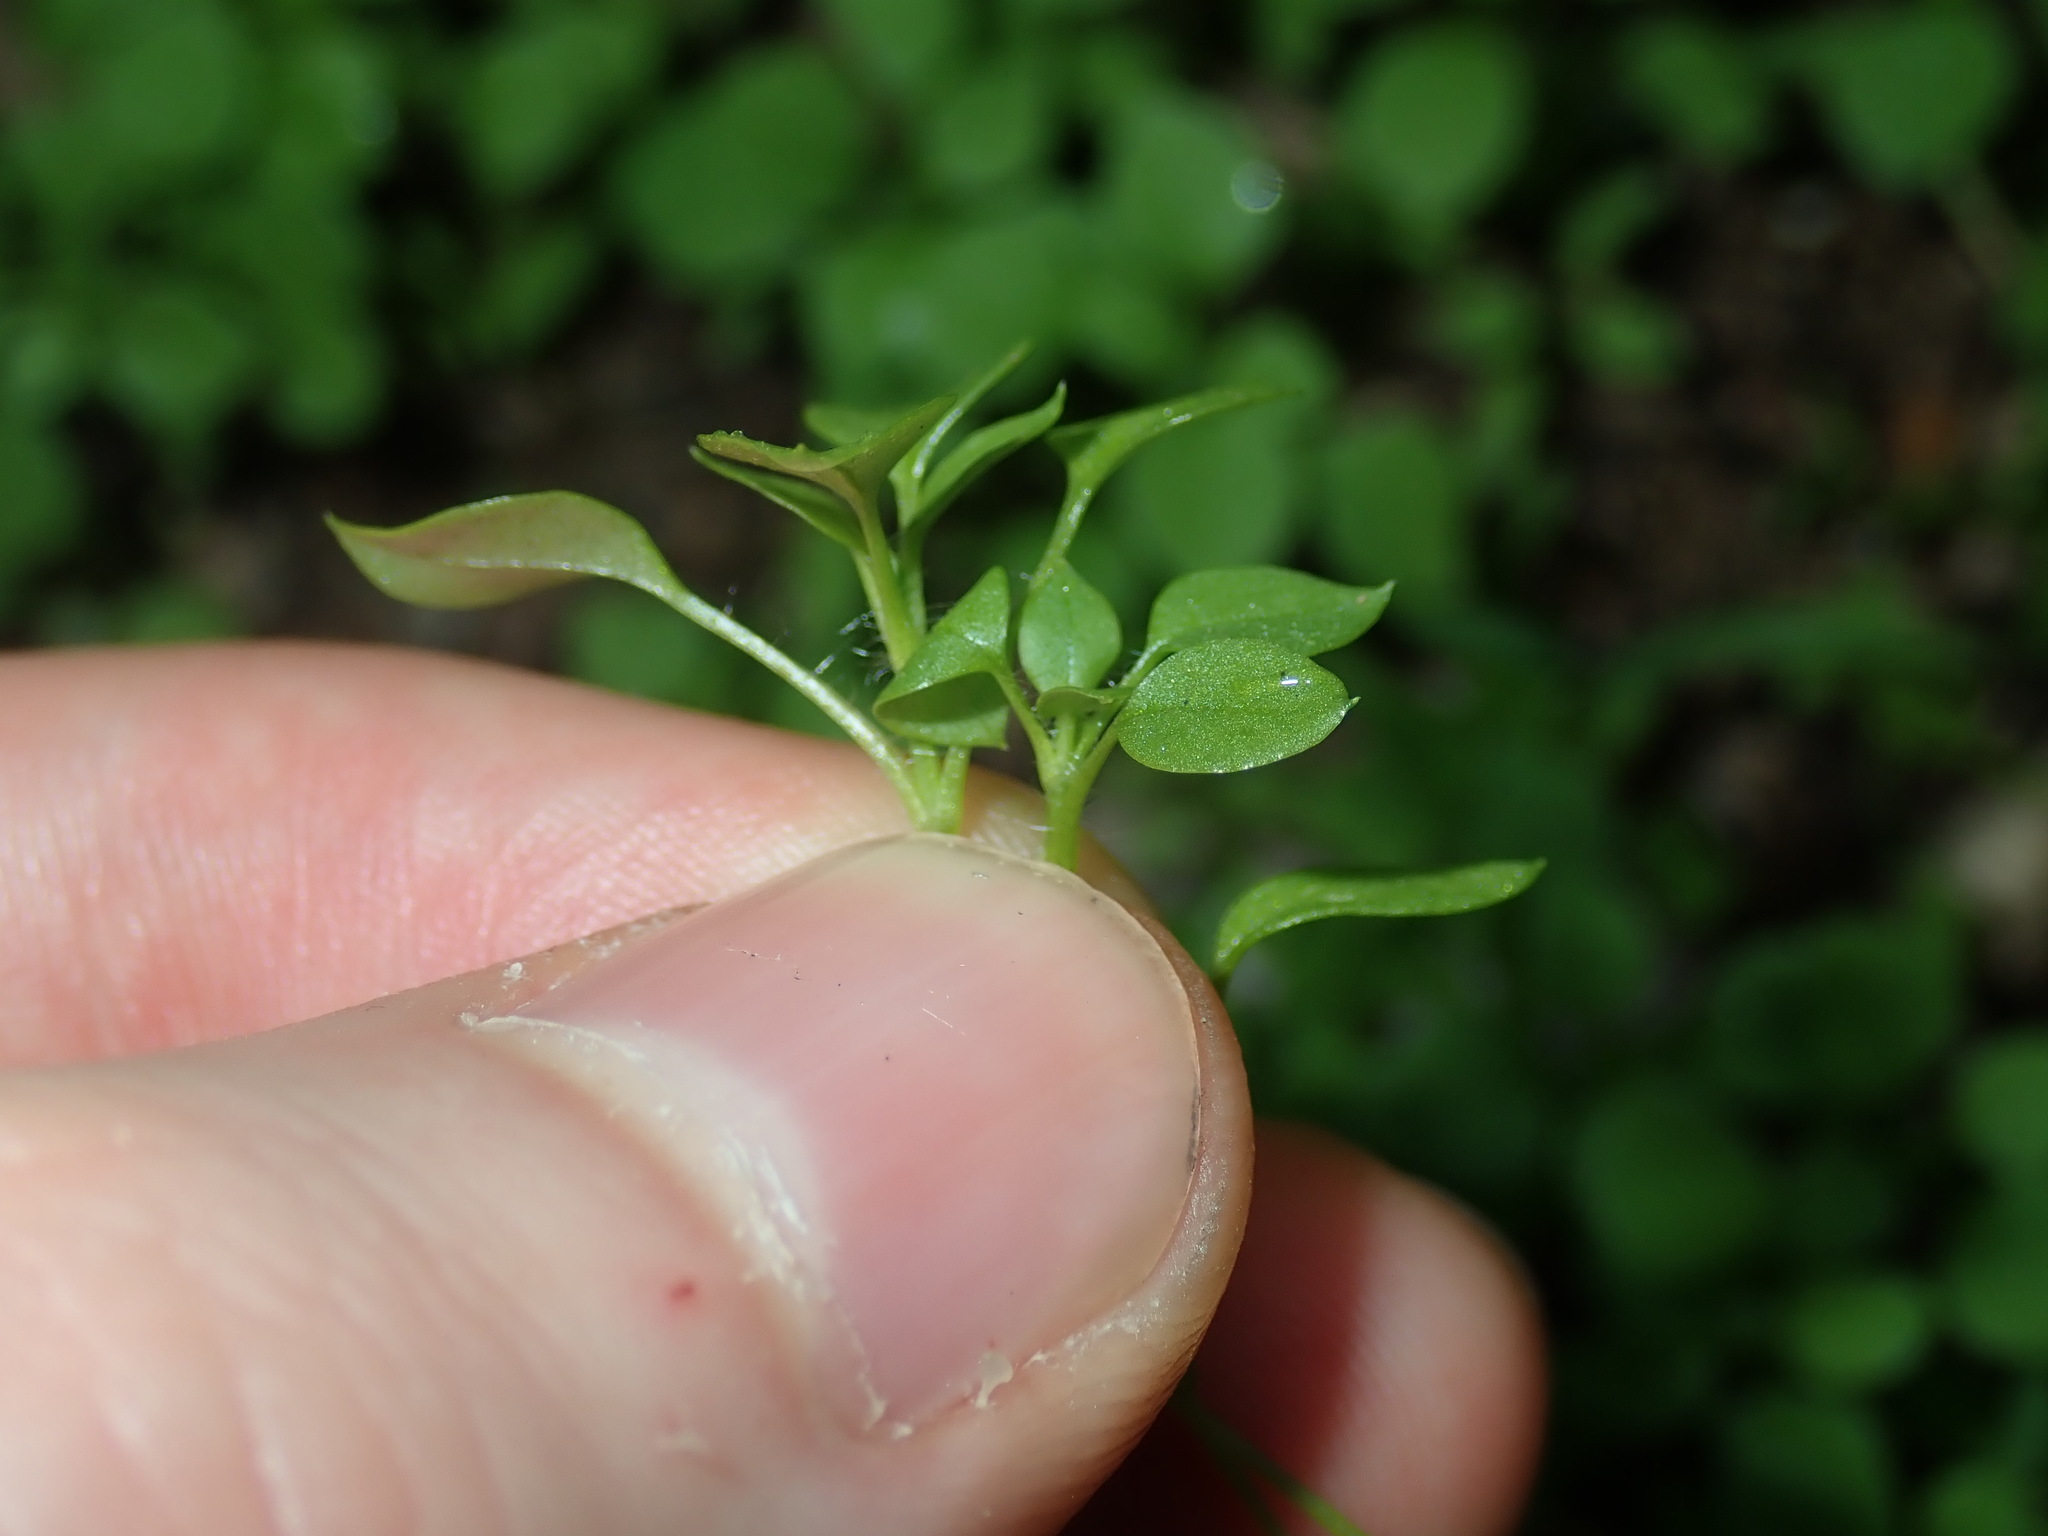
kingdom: Plantae
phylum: Tracheophyta
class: Magnoliopsida
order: Caryophyllales
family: Caryophyllaceae
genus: Stellaria
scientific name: Stellaria media
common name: Common chickweed
